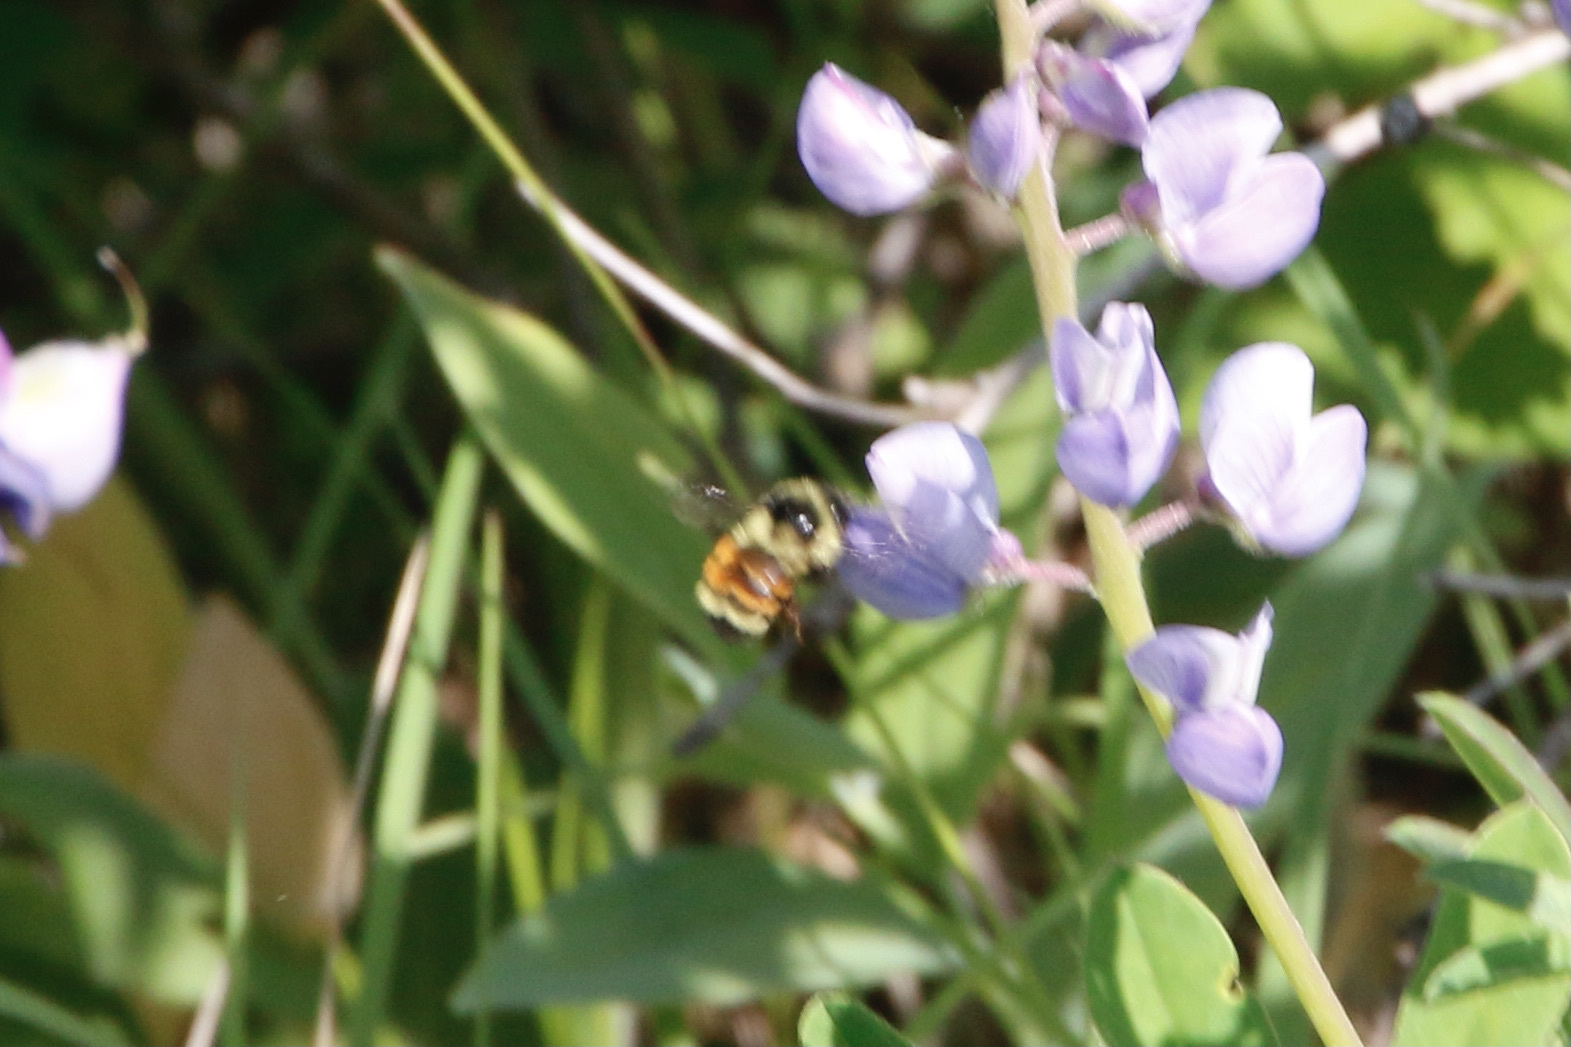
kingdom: Animalia
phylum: Arthropoda
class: Insecta
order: Hymenoptera
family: Apidae
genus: Bombus
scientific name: Bombus ternarius
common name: Tri-colored bumble bee
